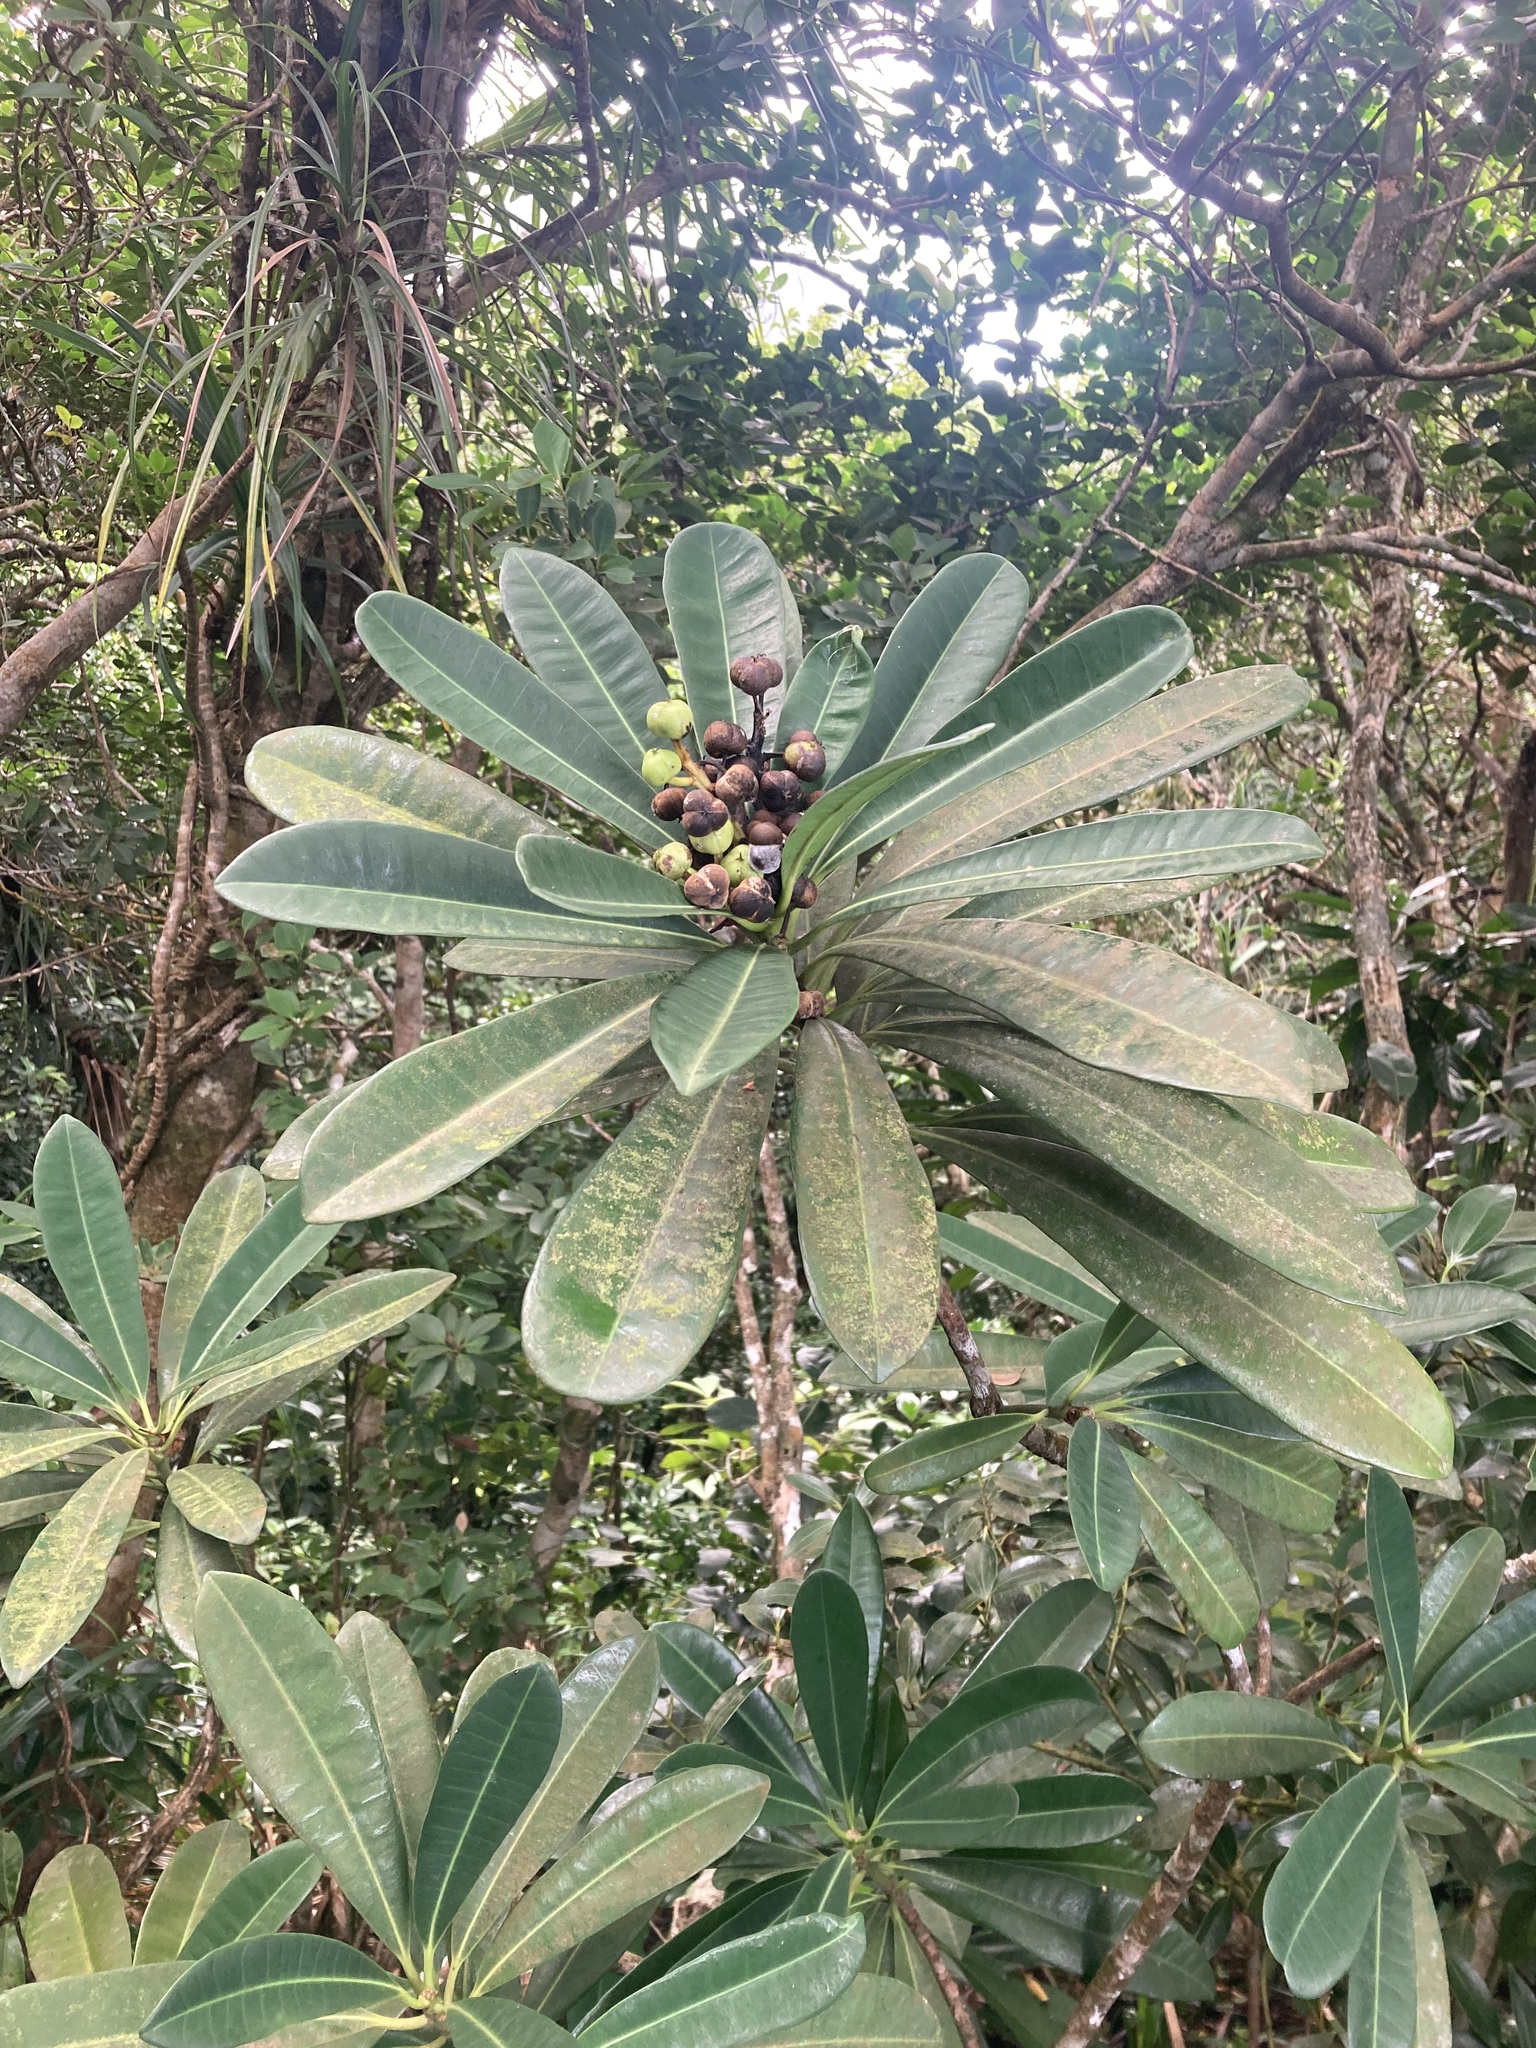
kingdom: Plantae
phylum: Tracheophyta
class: Magnoliopsida
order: Malpighiales
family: Euphorbiaceae
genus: Excoecaria
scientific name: Excoecaria kawakamii
